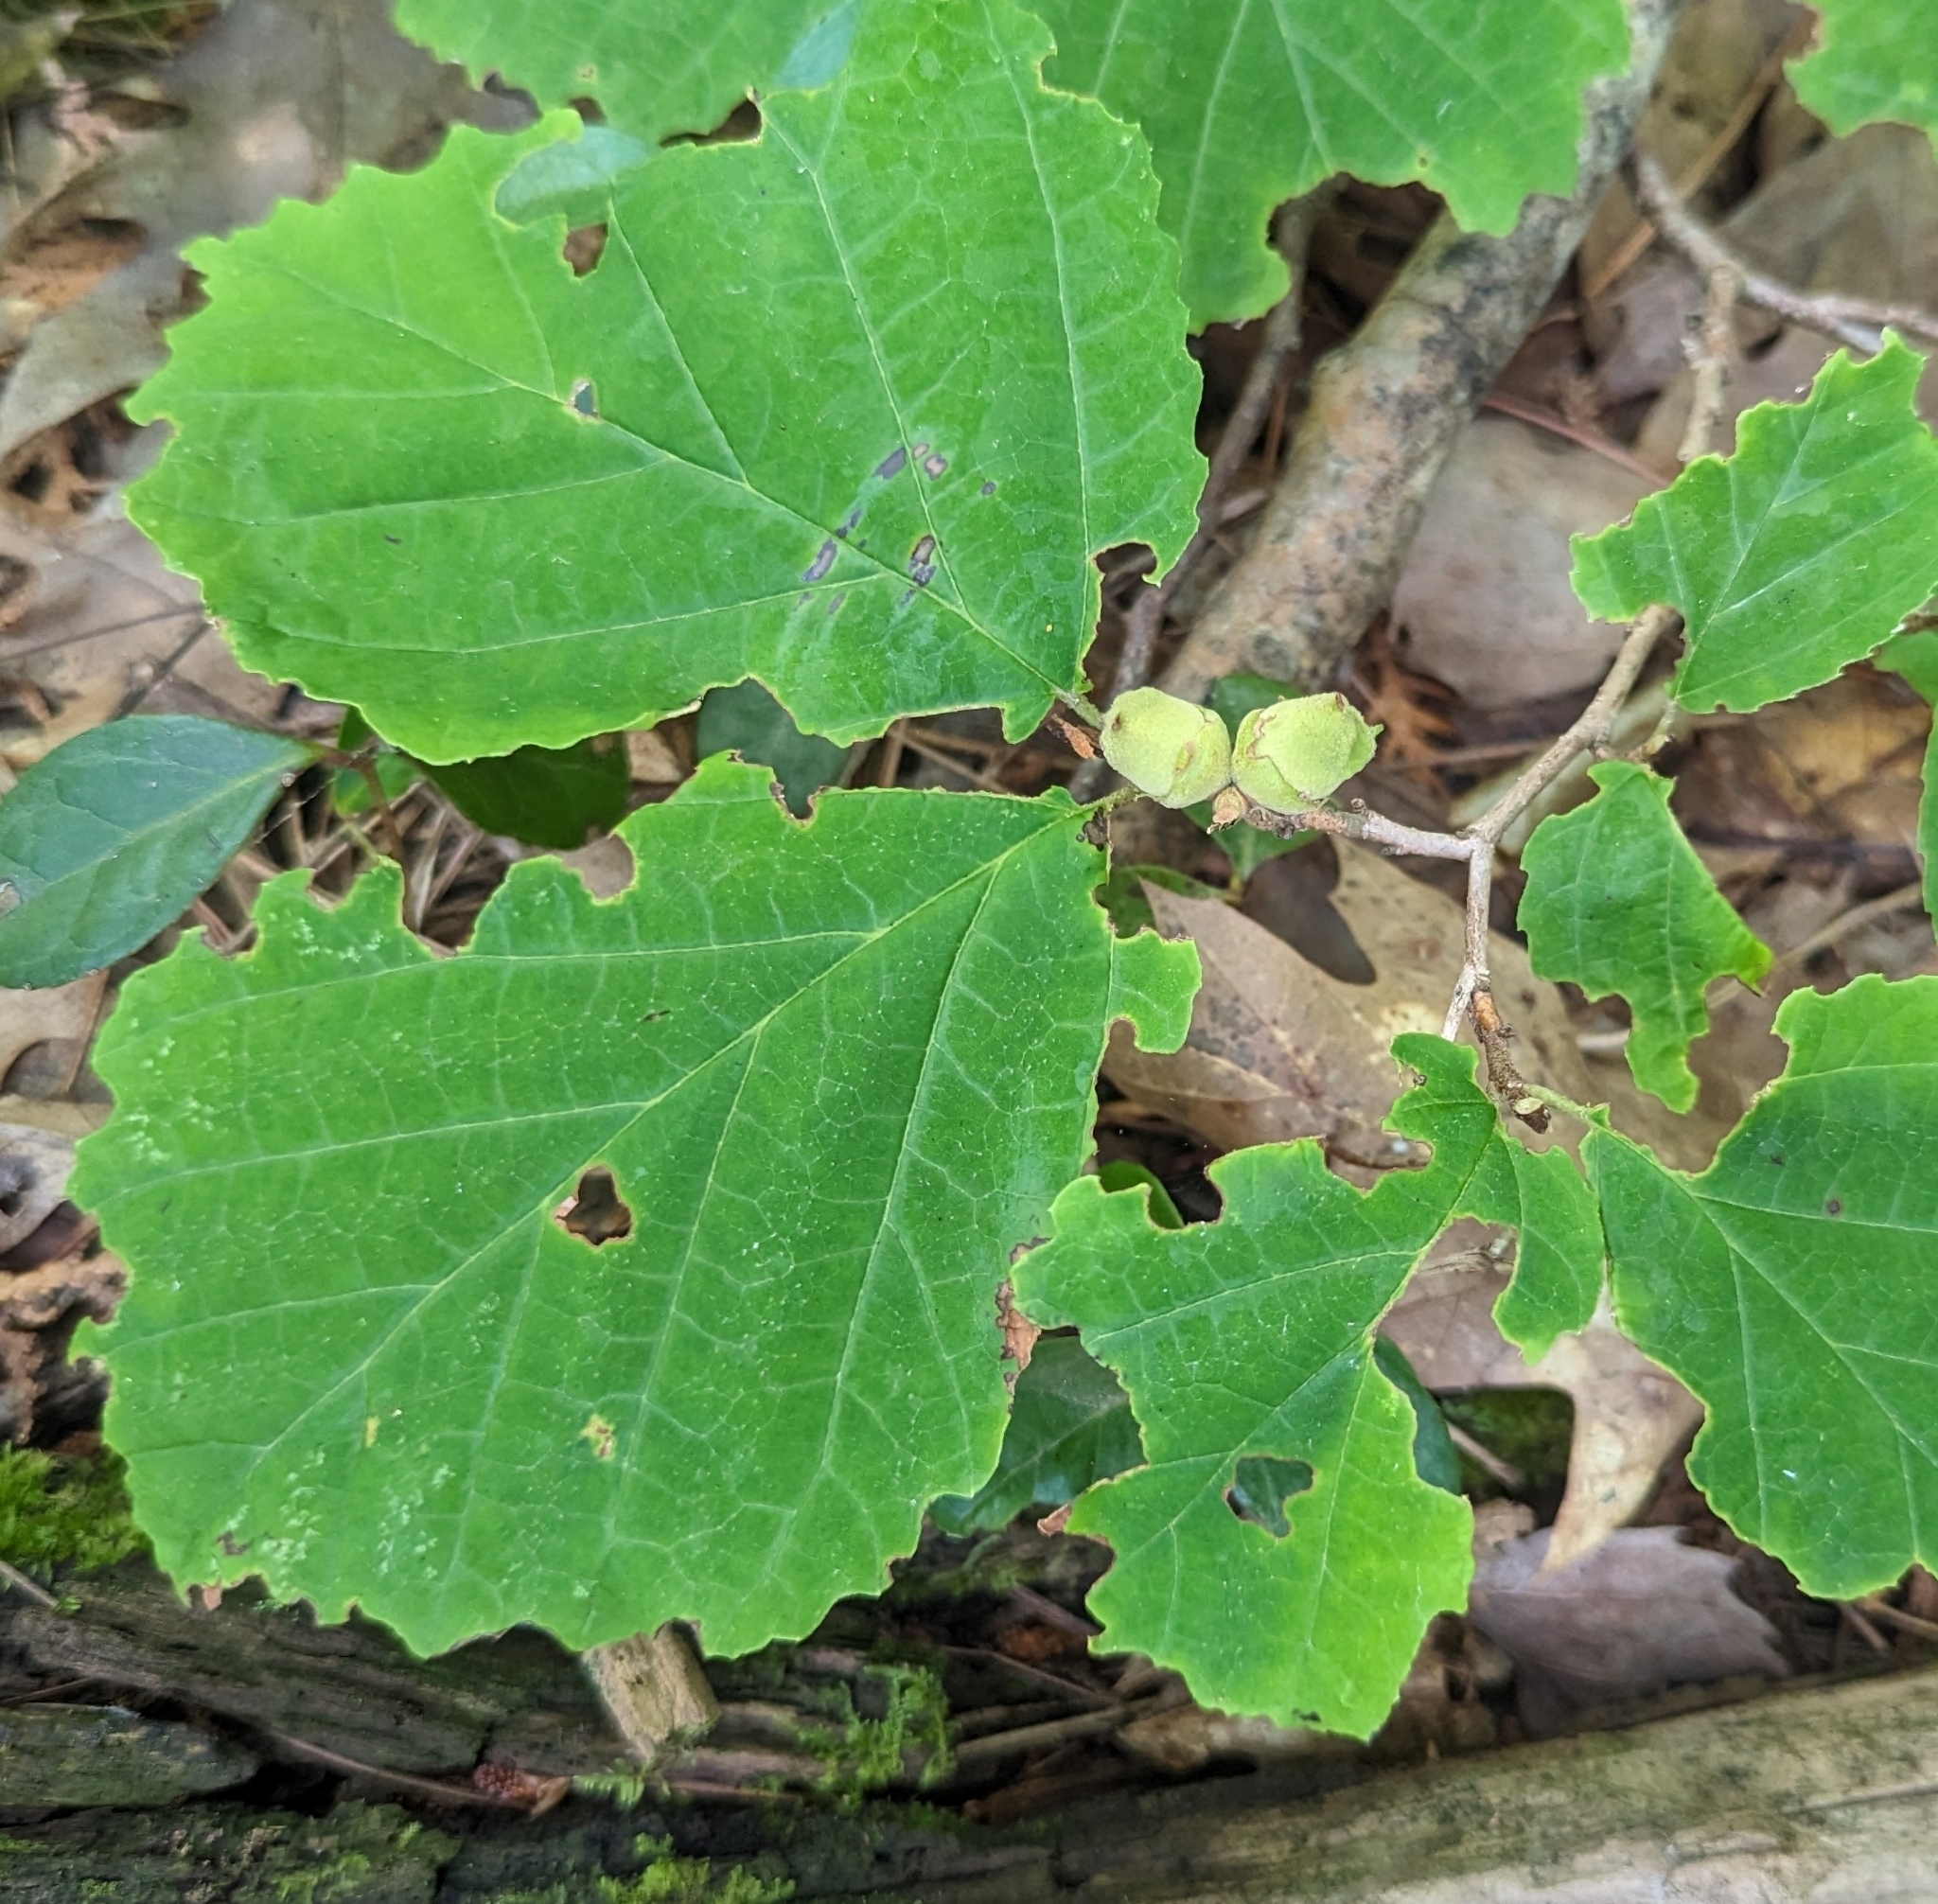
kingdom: Plantae
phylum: Tracheophyta
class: Magnoliopsida
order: Saxifragales
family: Hamamelidaceae
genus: Hamamelis
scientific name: Hamamelis virginiana
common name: Witch-hazel
